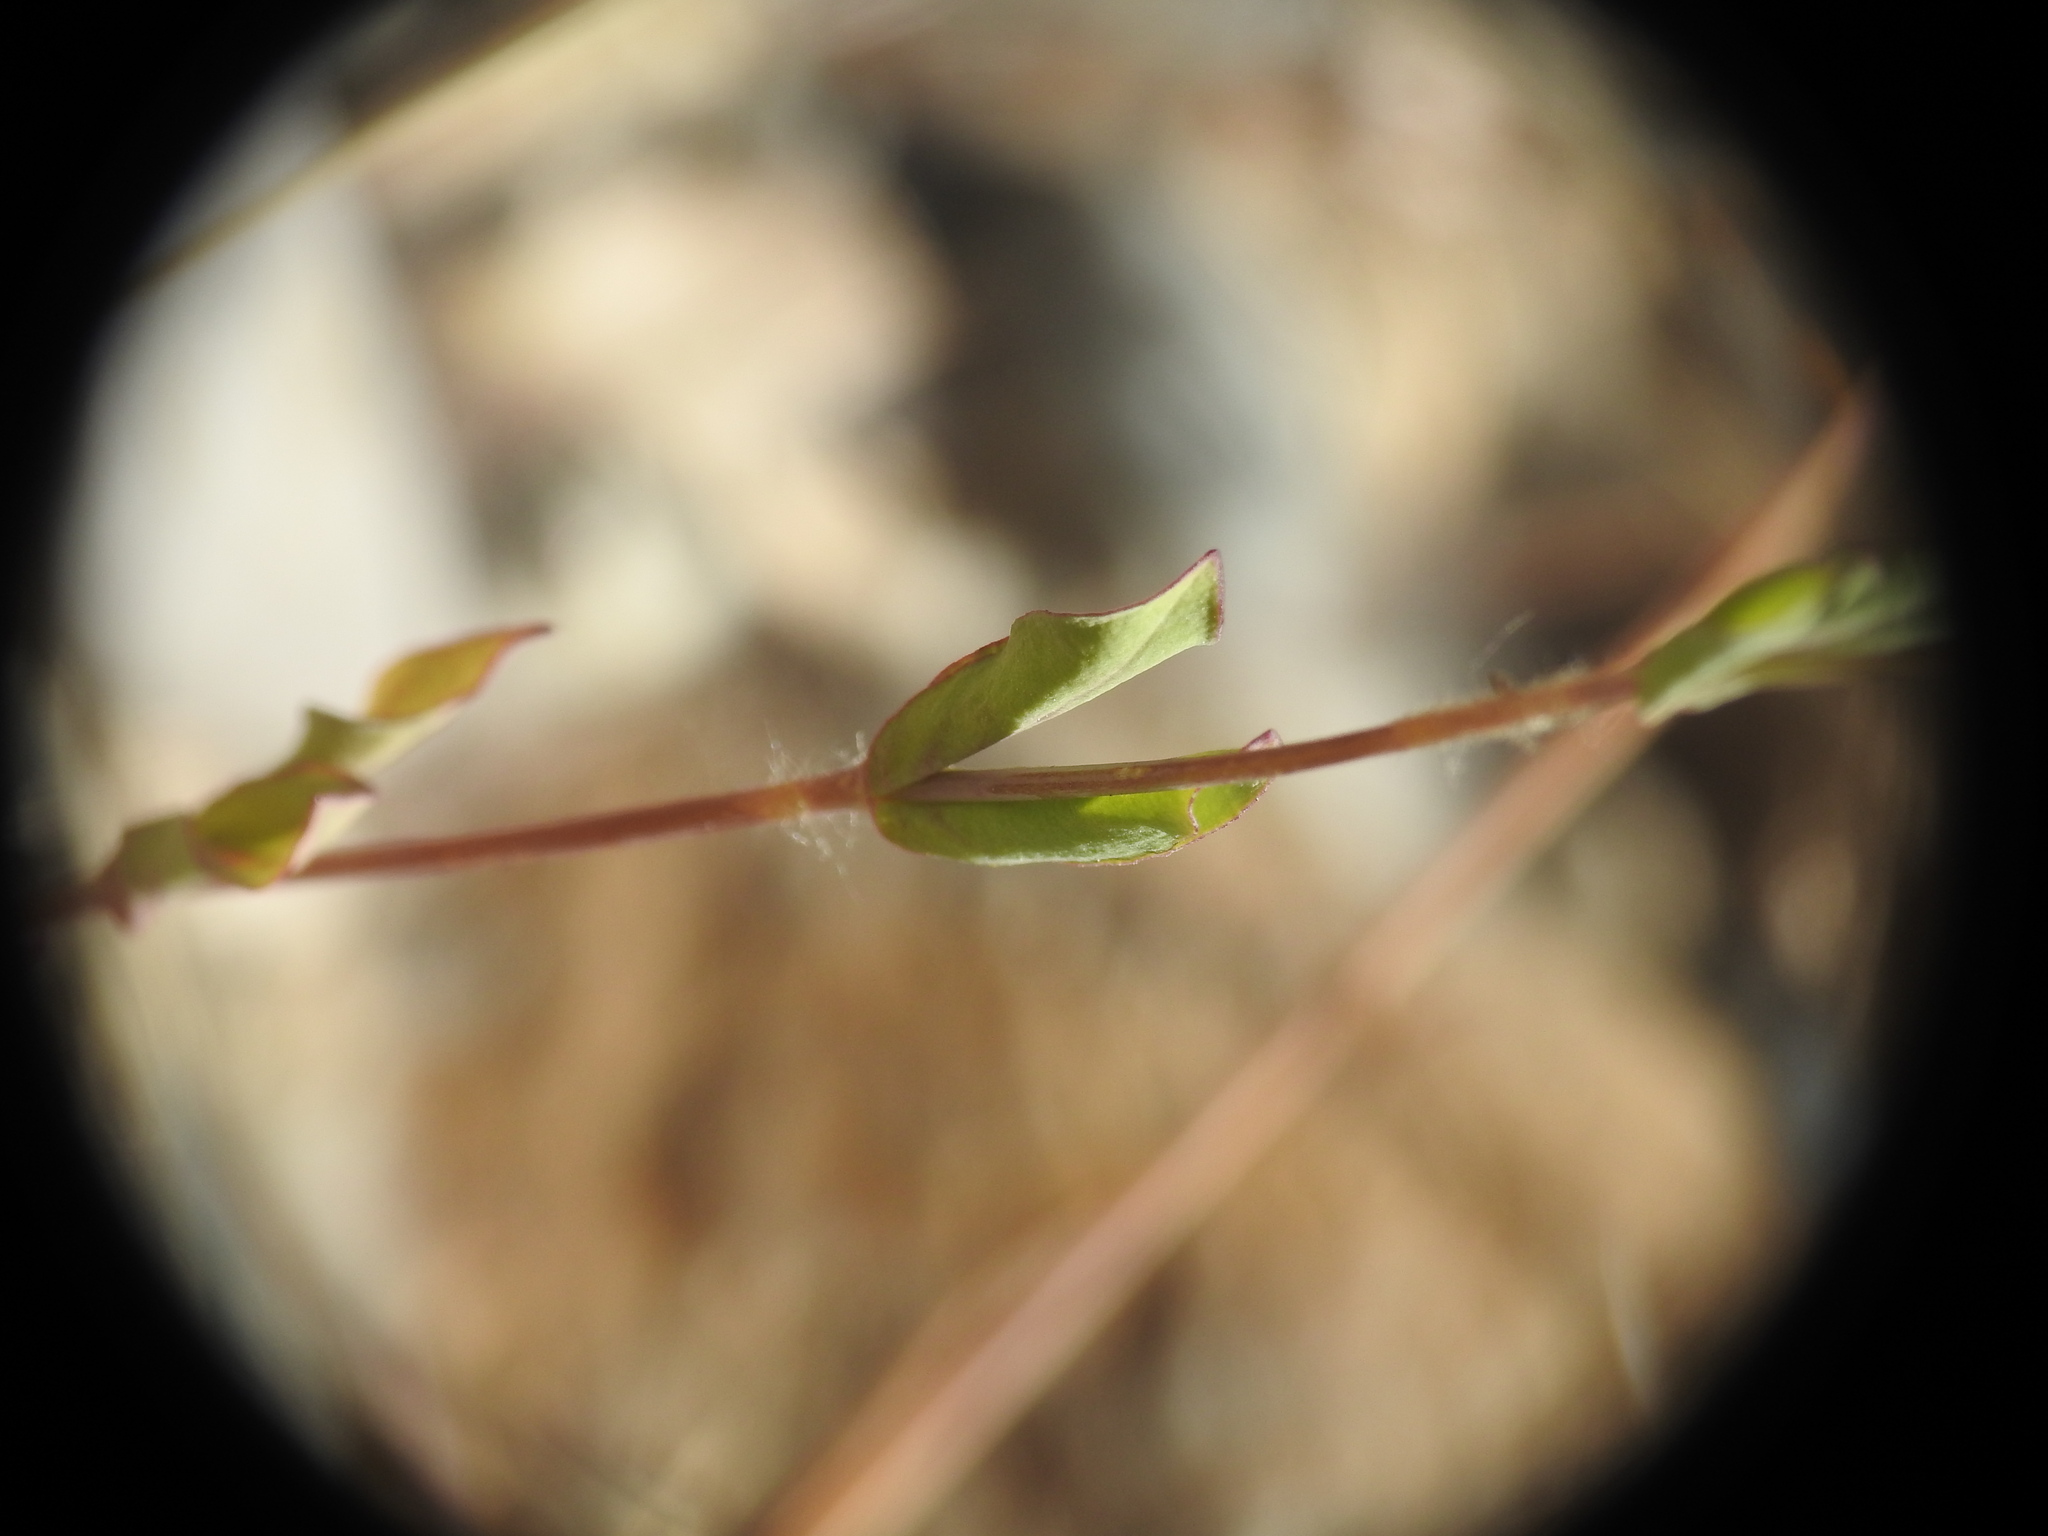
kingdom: Plantae
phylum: Tracheophyta
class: Magnoliopsida
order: Caryophyllales
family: Caryophyllaceae
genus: Atocion
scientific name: Atocion armeria
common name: Sweet william catchfly
